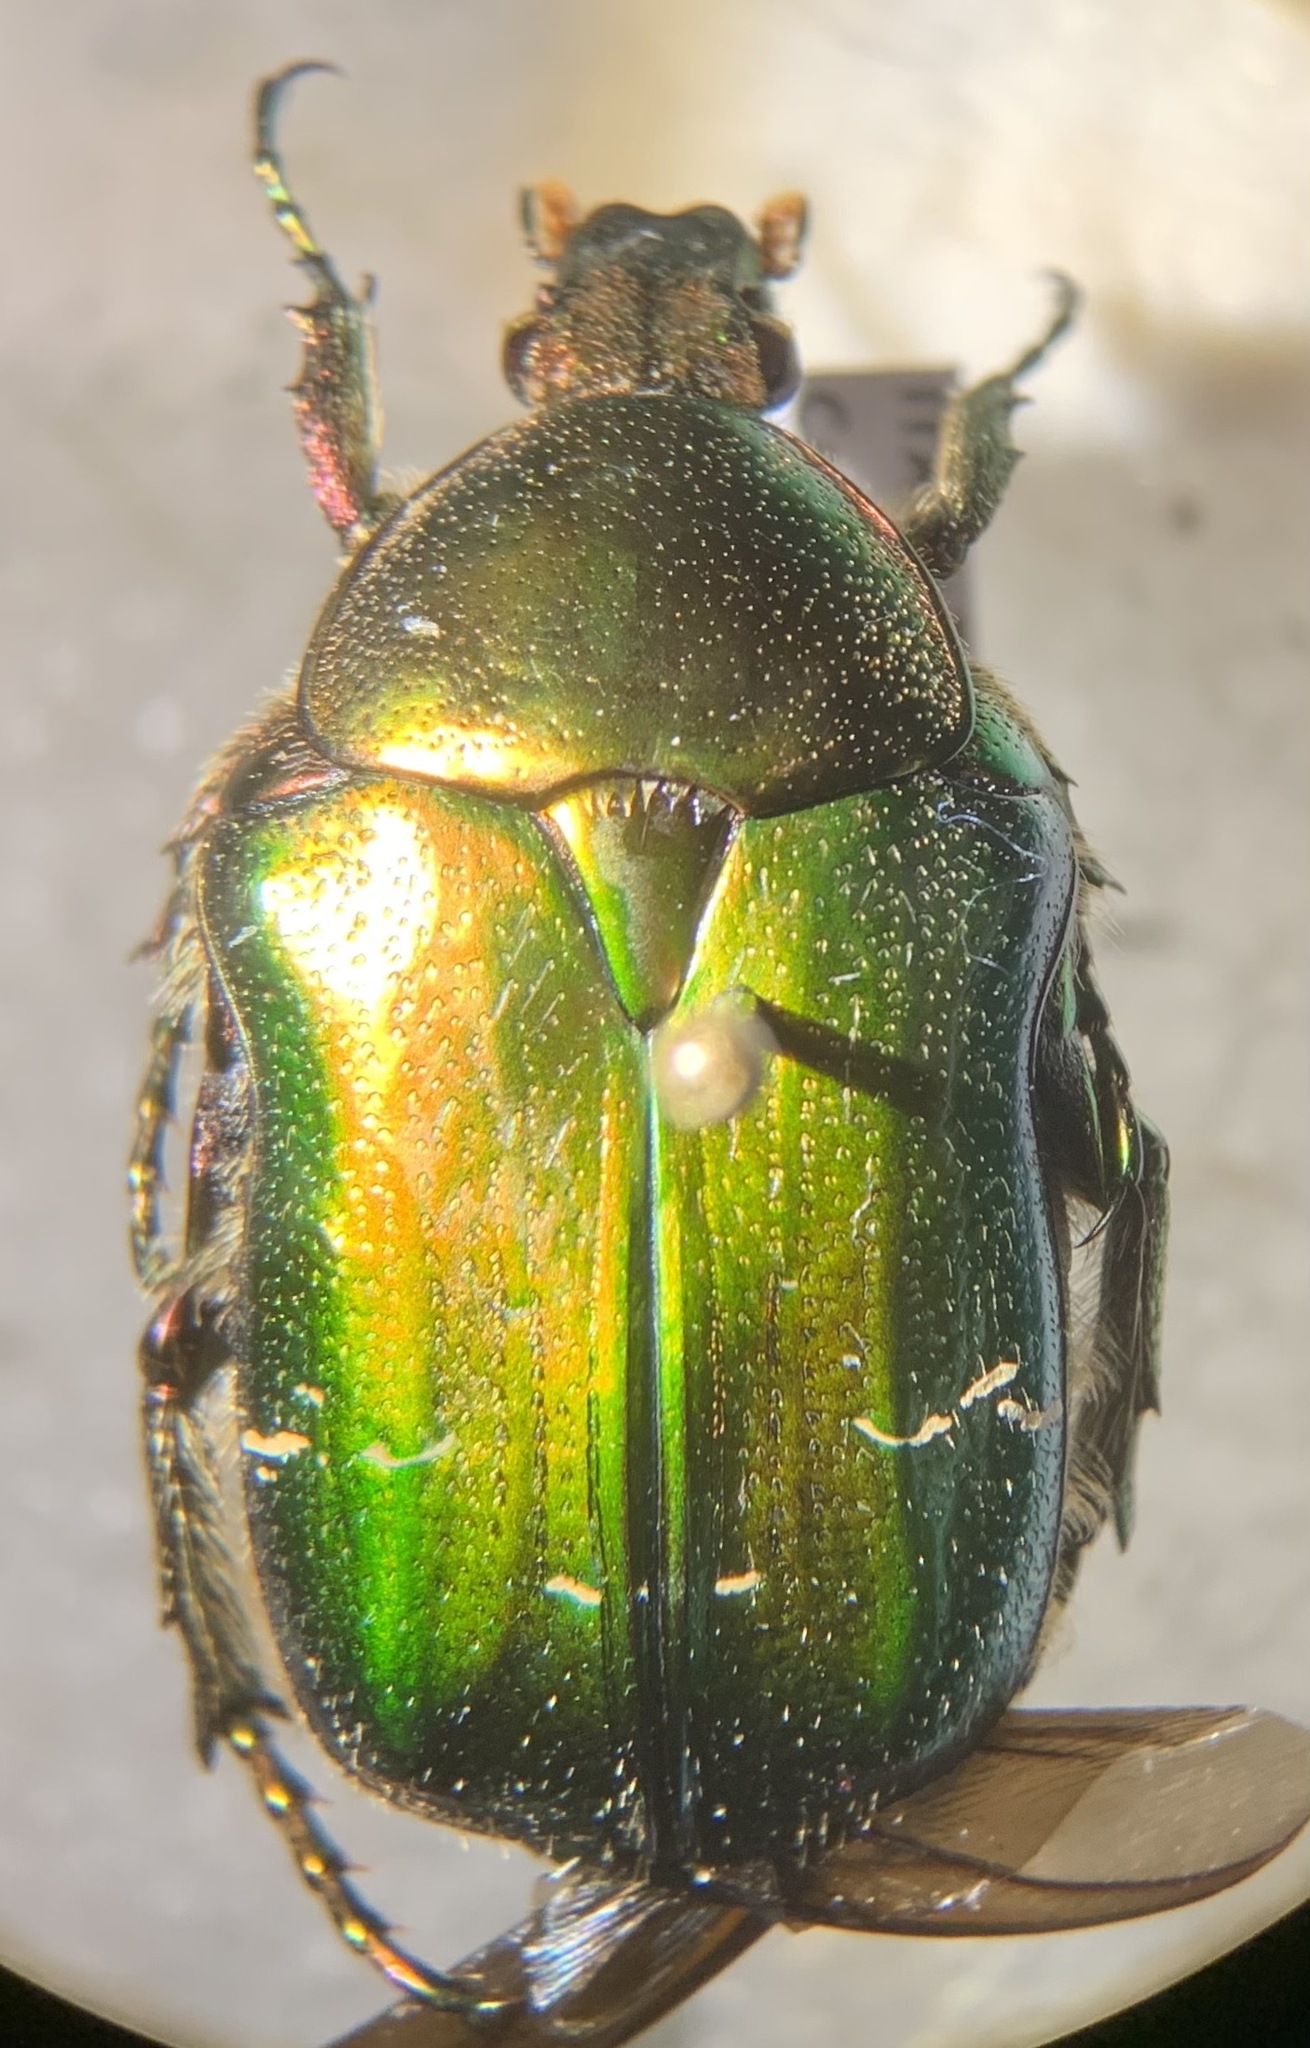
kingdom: Animalia
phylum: Arthropoda
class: Insecta
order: Coleoptera
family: Scarabaeidae
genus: Cetonia
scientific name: Cetonia aurata
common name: Rose chafer
